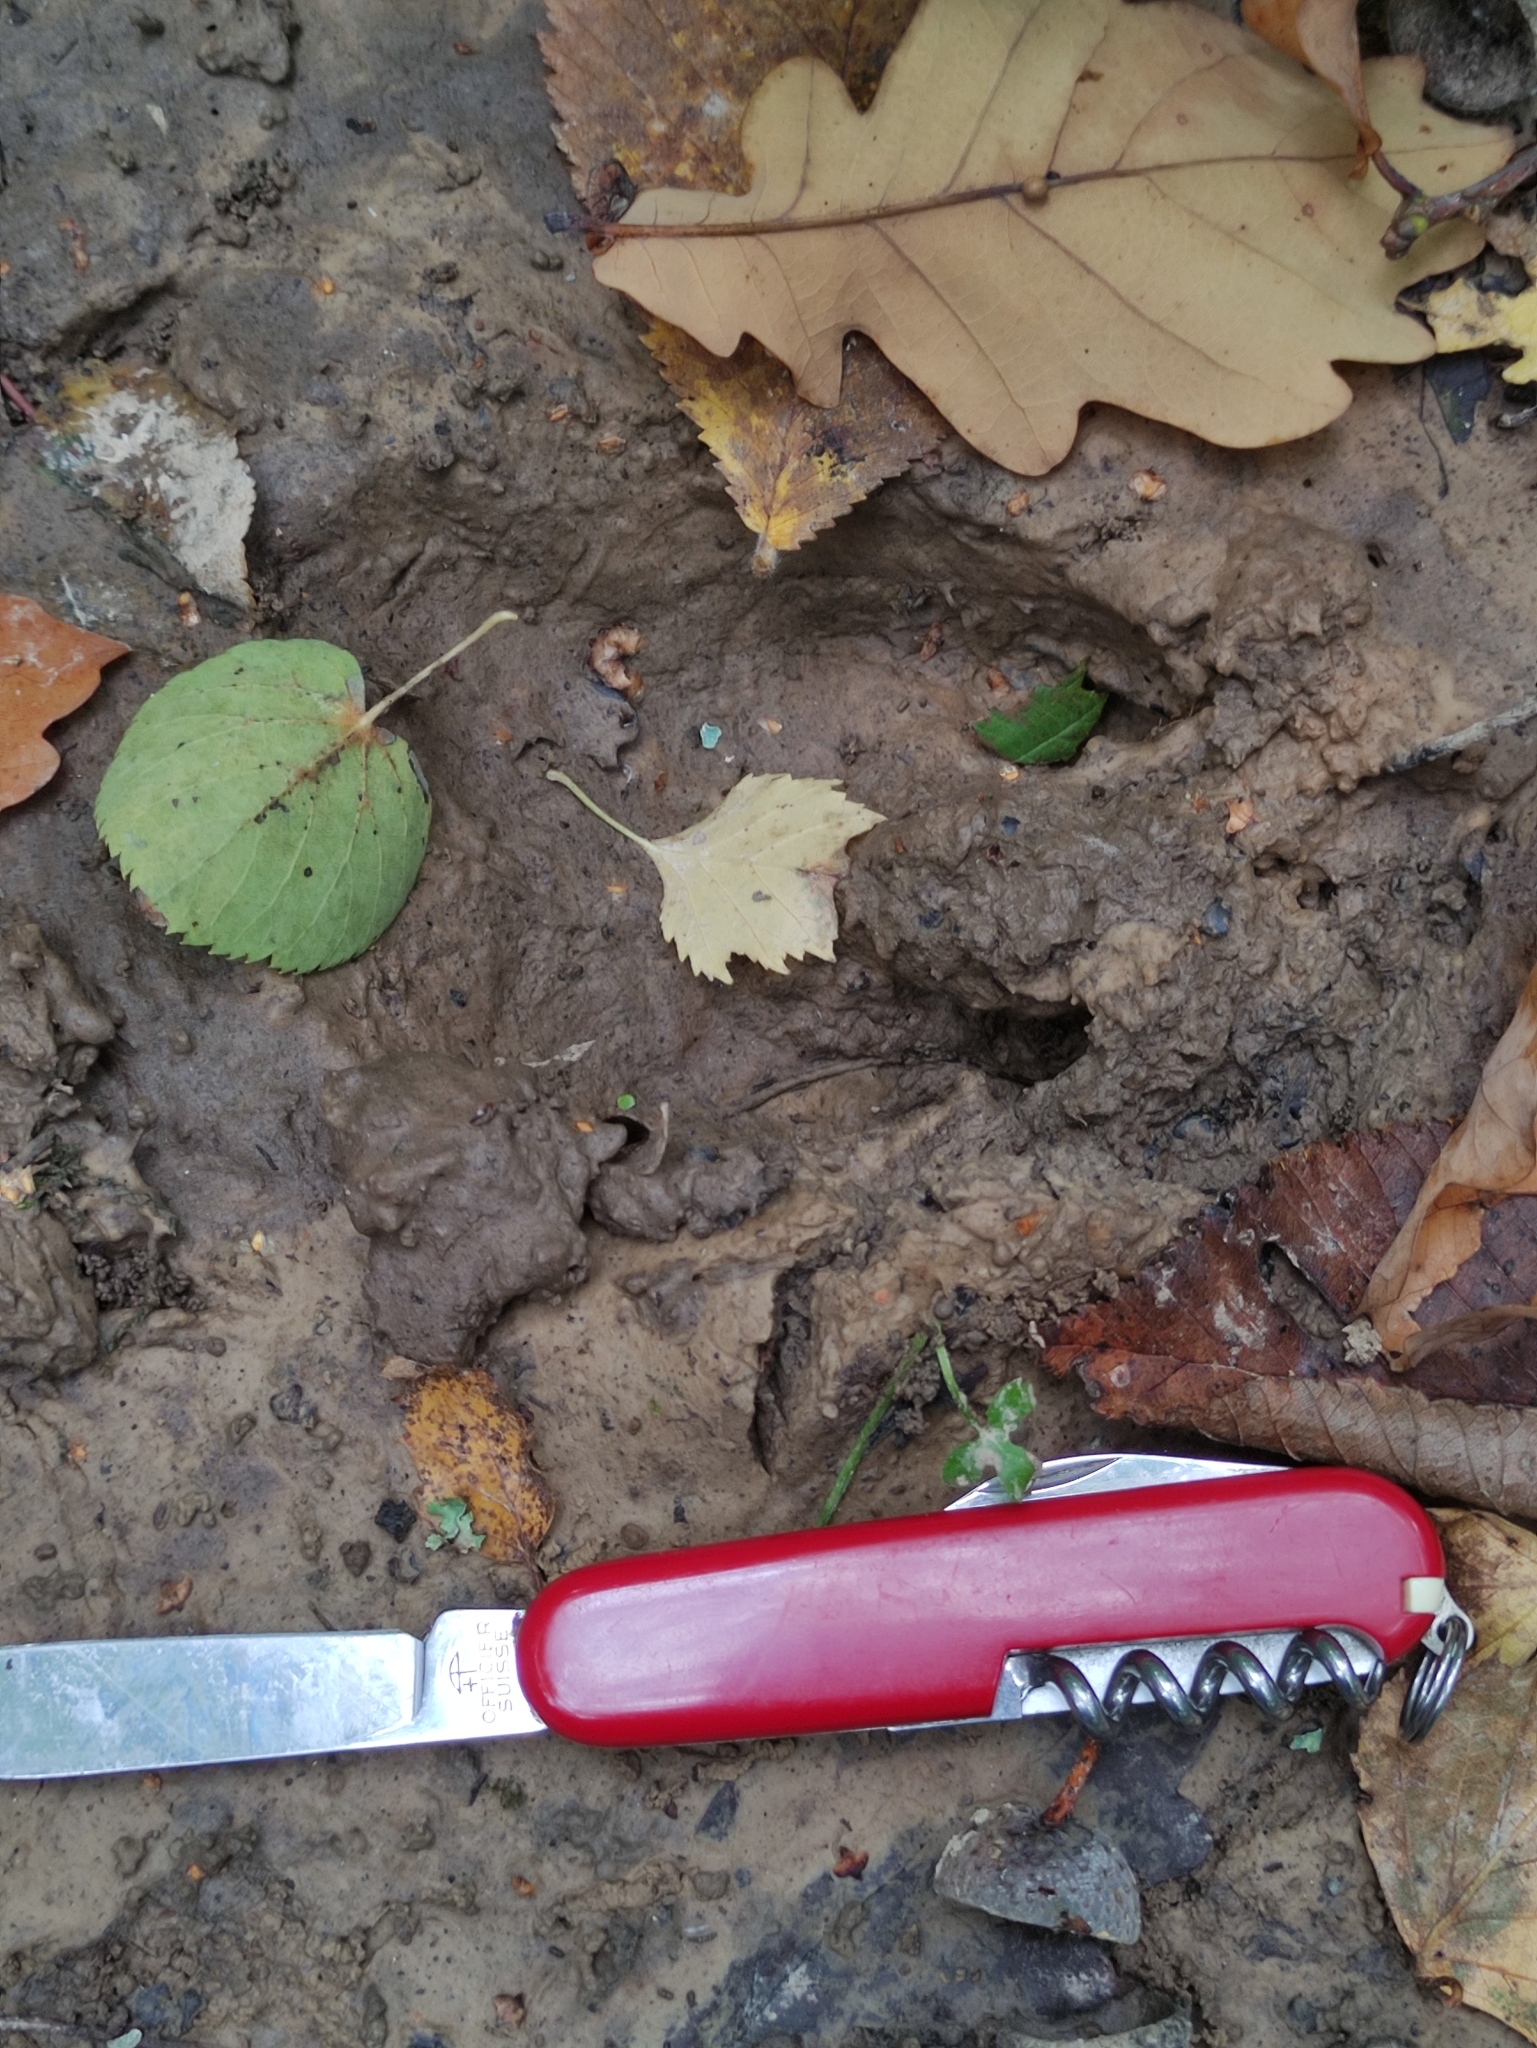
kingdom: Animalia
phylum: Chordata
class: Mammalia
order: Artiodactyla
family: Suidae
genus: Sus
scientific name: Sus scrofa
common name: Wild boar
